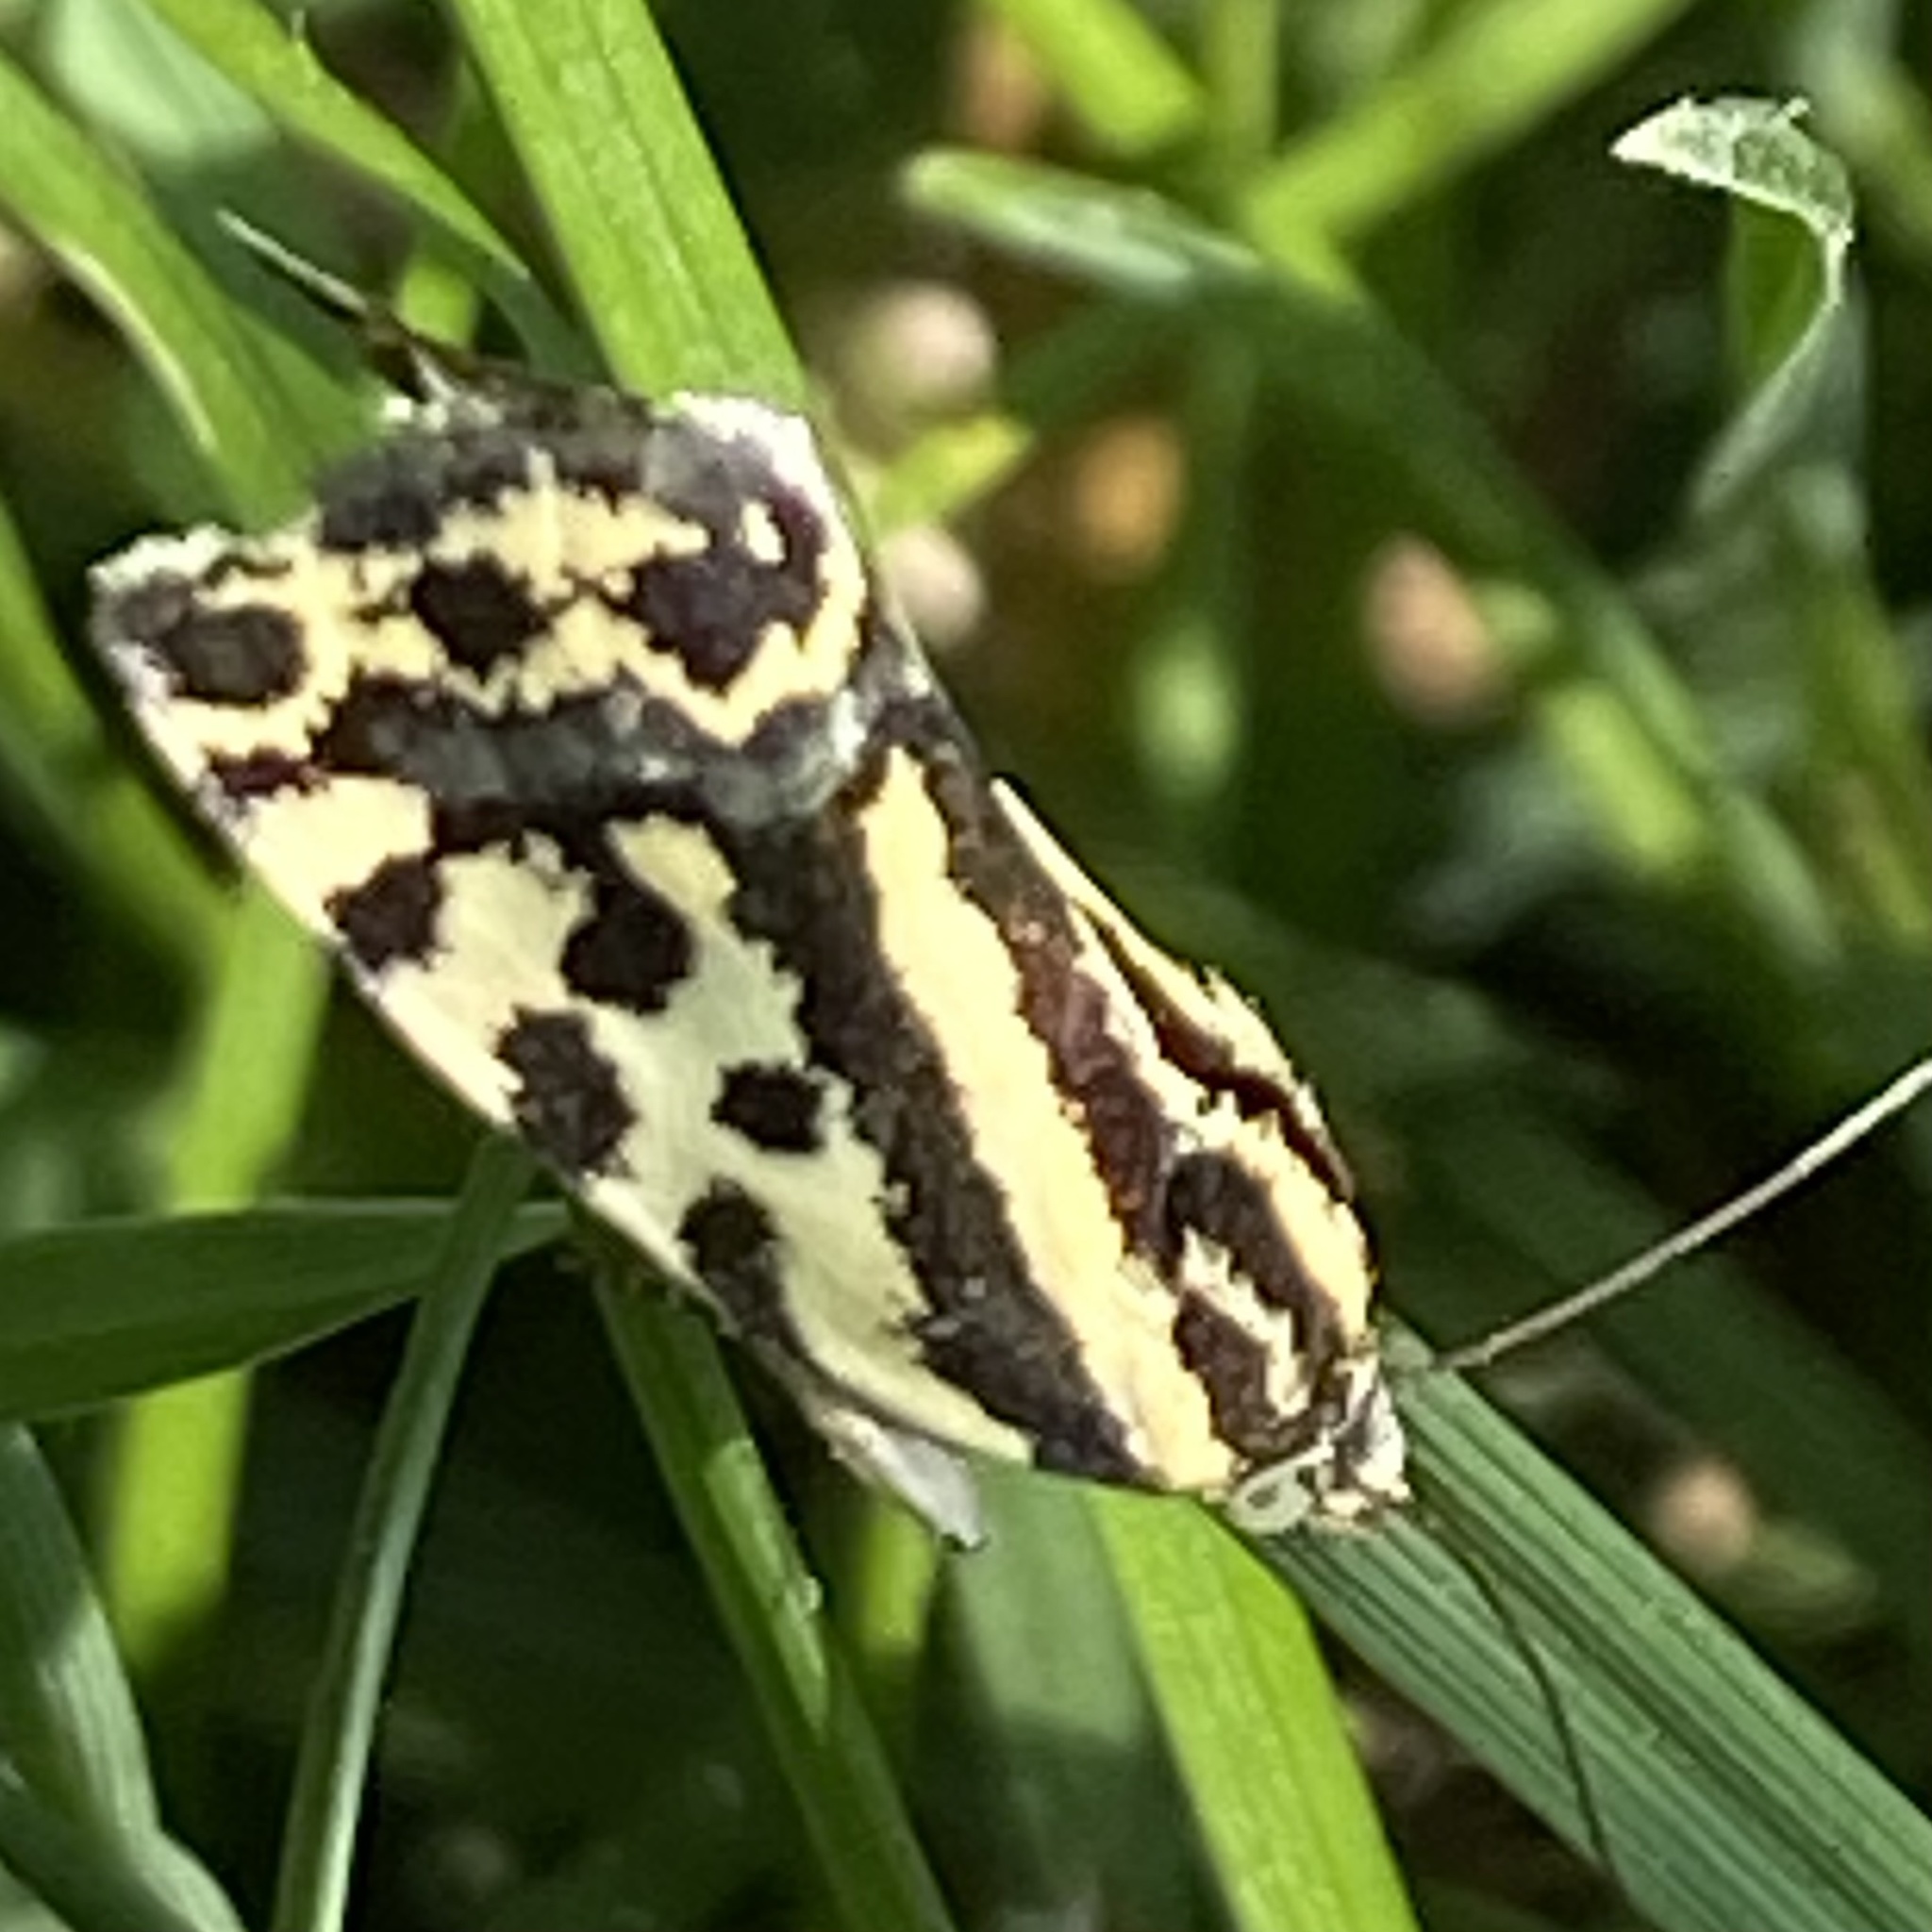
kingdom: Animalia
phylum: Arthropoda
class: Insecta
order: Lepidoptera
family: Noctuidae
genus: Acontia
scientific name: Acontia trabealis
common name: Spotted sulphur
